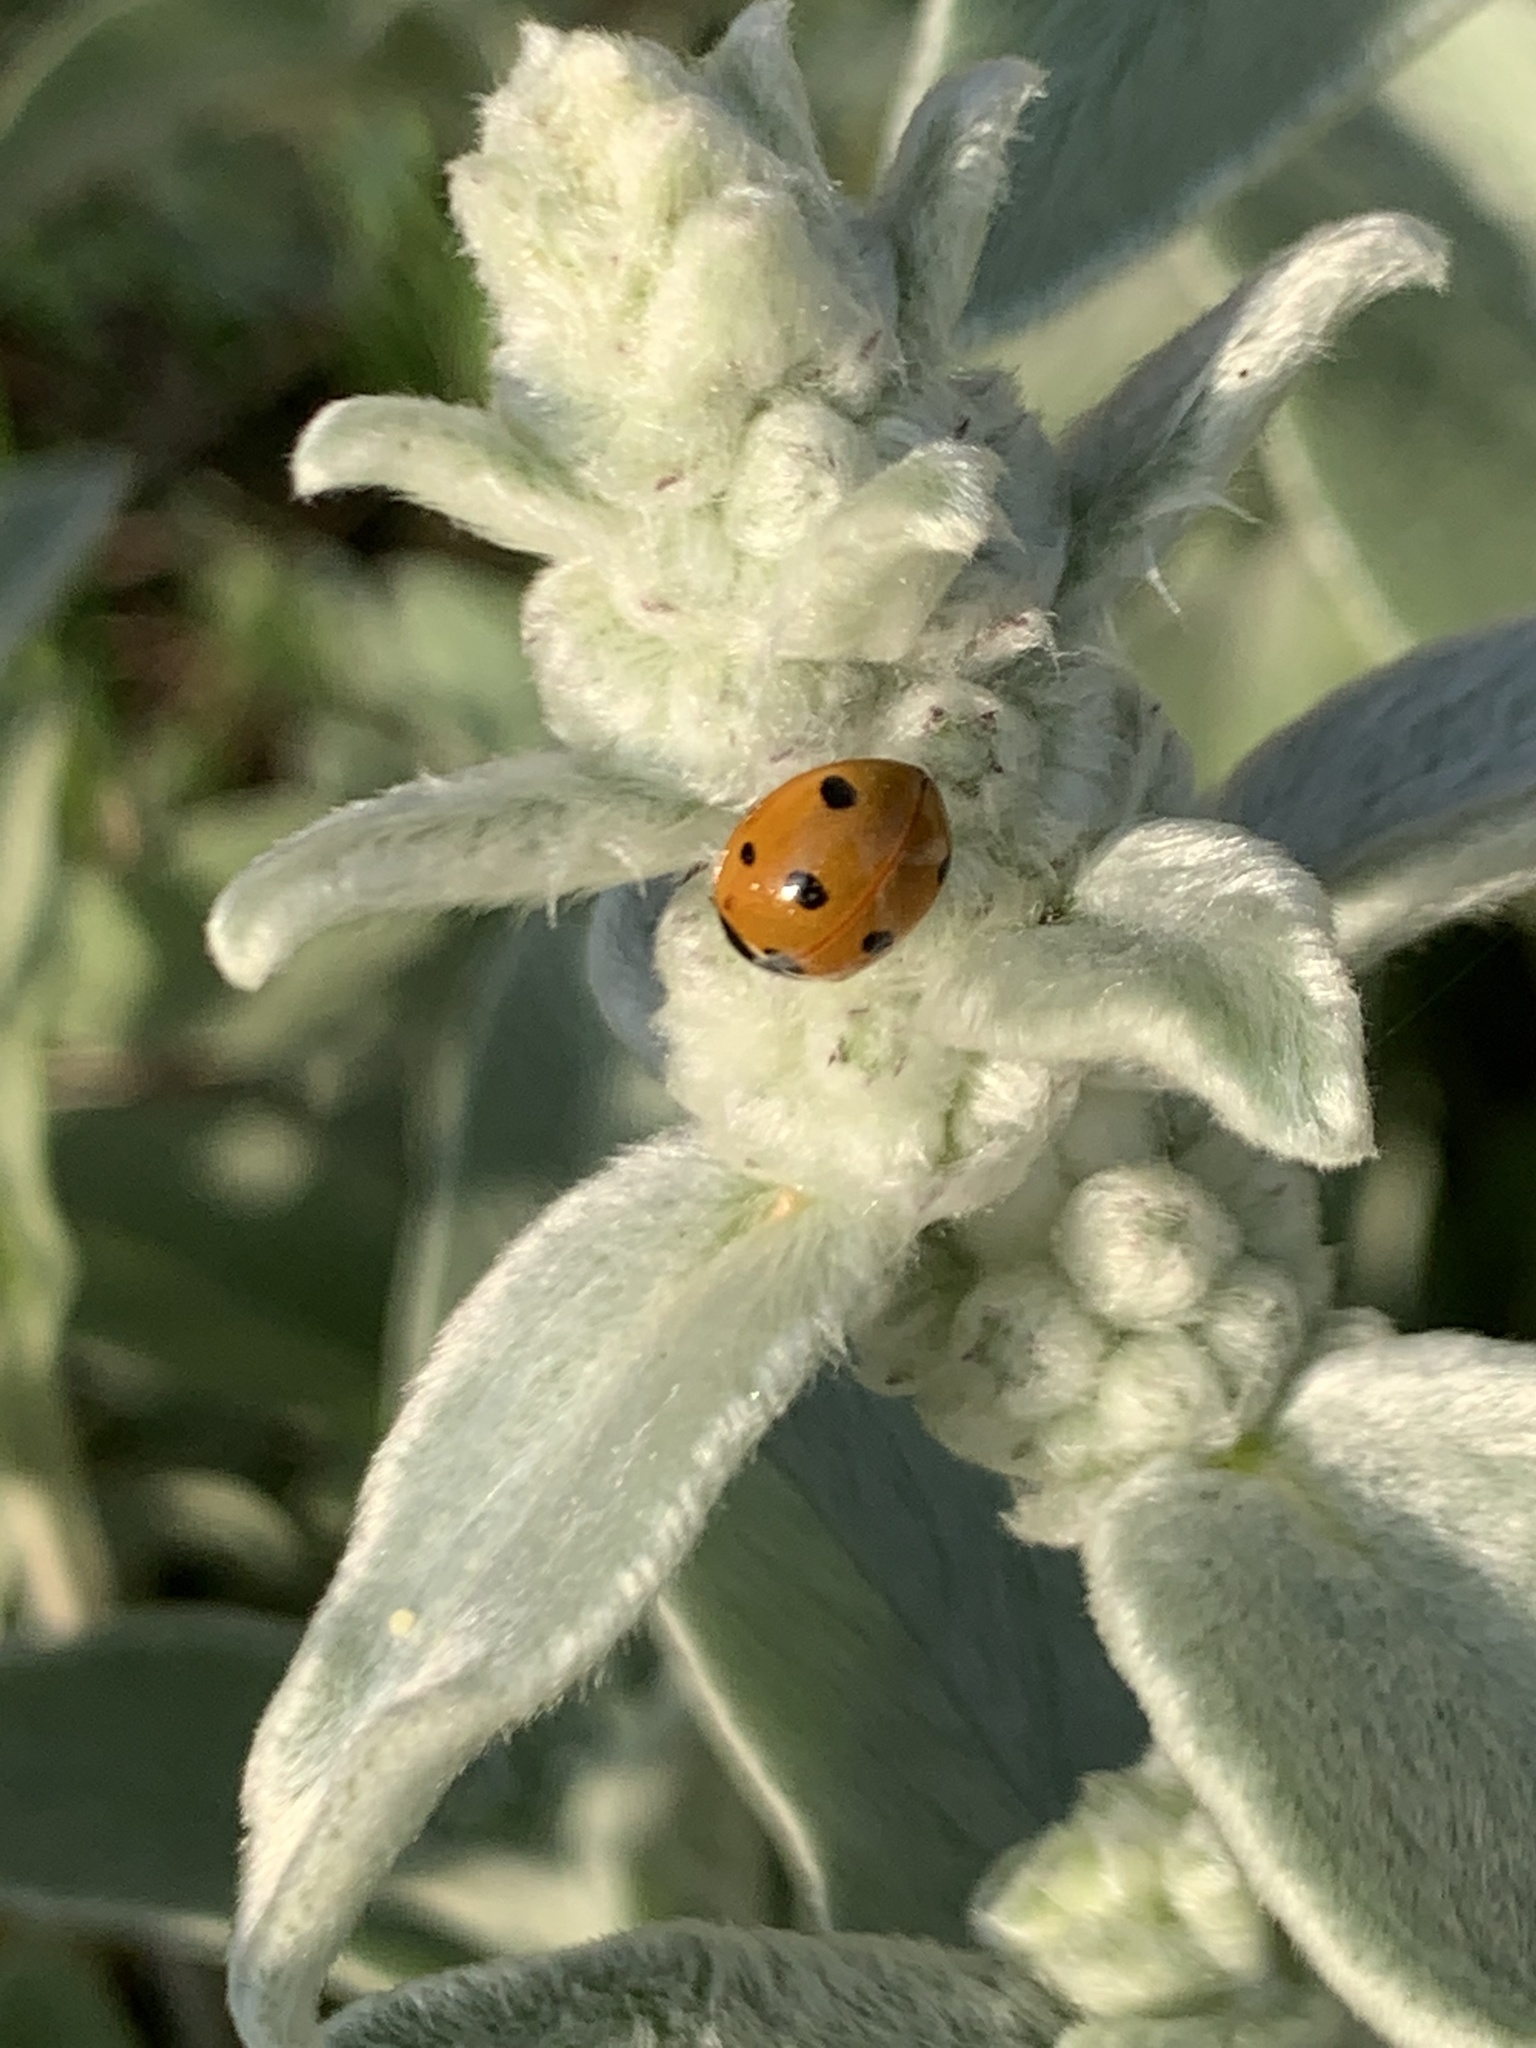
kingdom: Animalia
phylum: Arthropoda
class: Insecta
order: Coleoptera
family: Coccinellidae
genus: Coccinella
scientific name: Coccinella septempunctata
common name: Sevenspotted lady beetle
